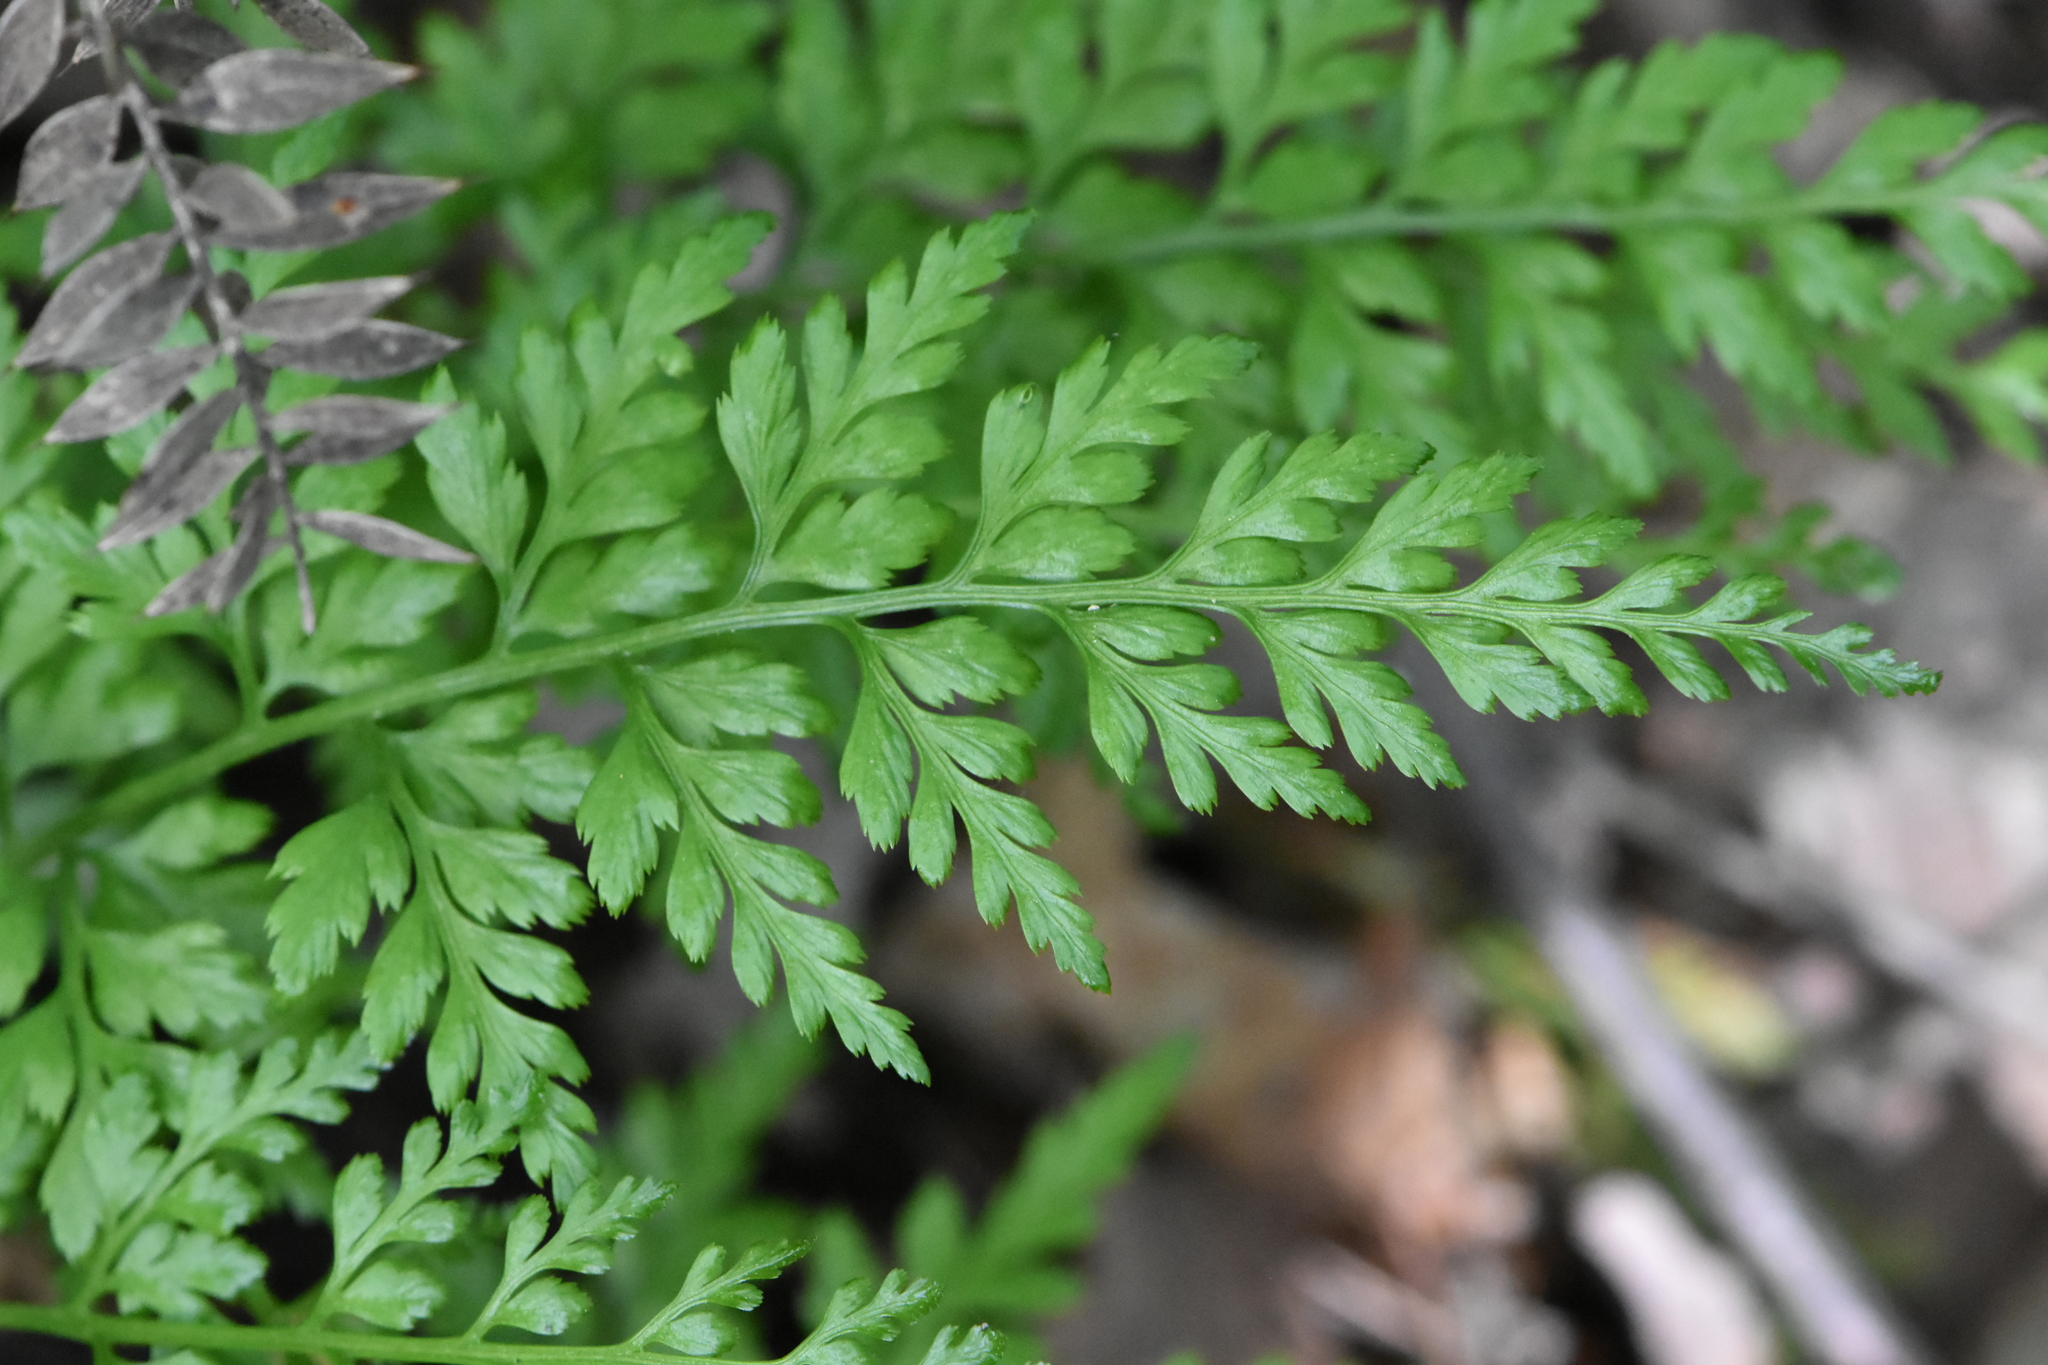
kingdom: Plantae
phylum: Tracheophyta
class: Polypodiopsida
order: Polypodiales
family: Aspleniaceae
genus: Asplenium
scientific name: Asplenium adiantum-nigrum
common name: Black spleenwort
